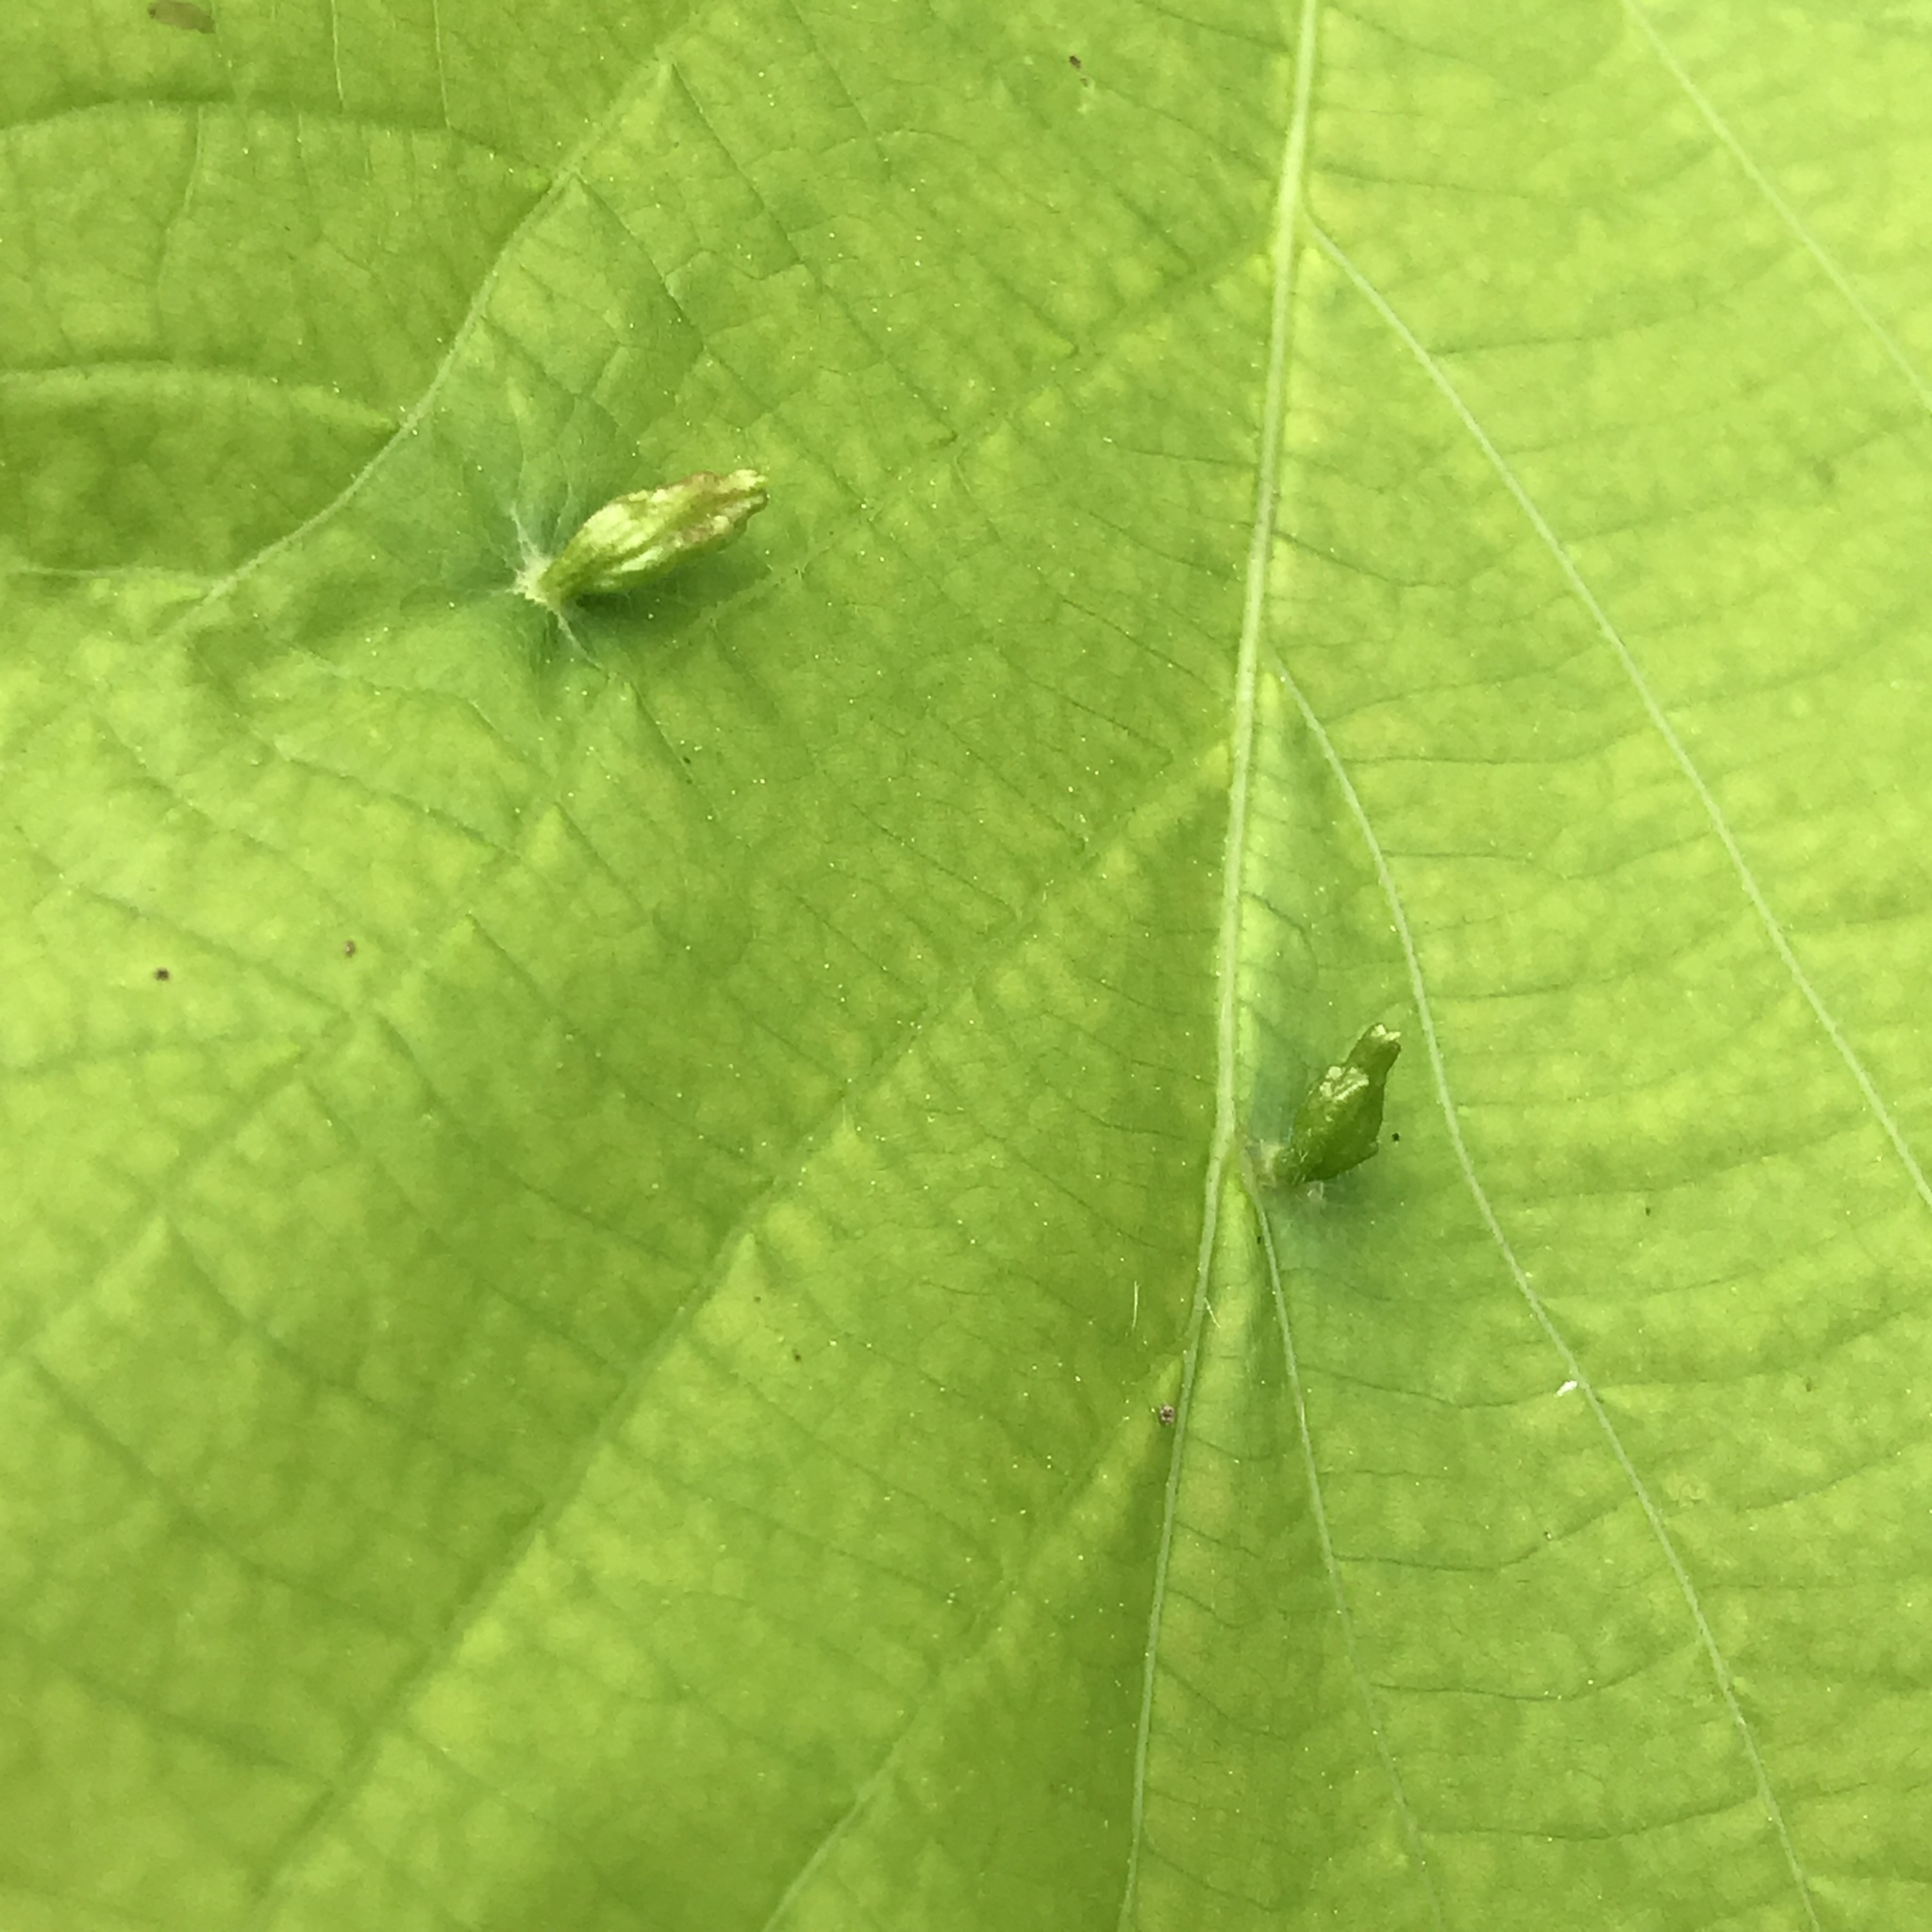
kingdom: Animalia
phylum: Arthropoda
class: Arachnida
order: Trombidiformes
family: Eriophyidae
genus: Eriophyes
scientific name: Eriophyes tiliae
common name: Red nail gall mite
